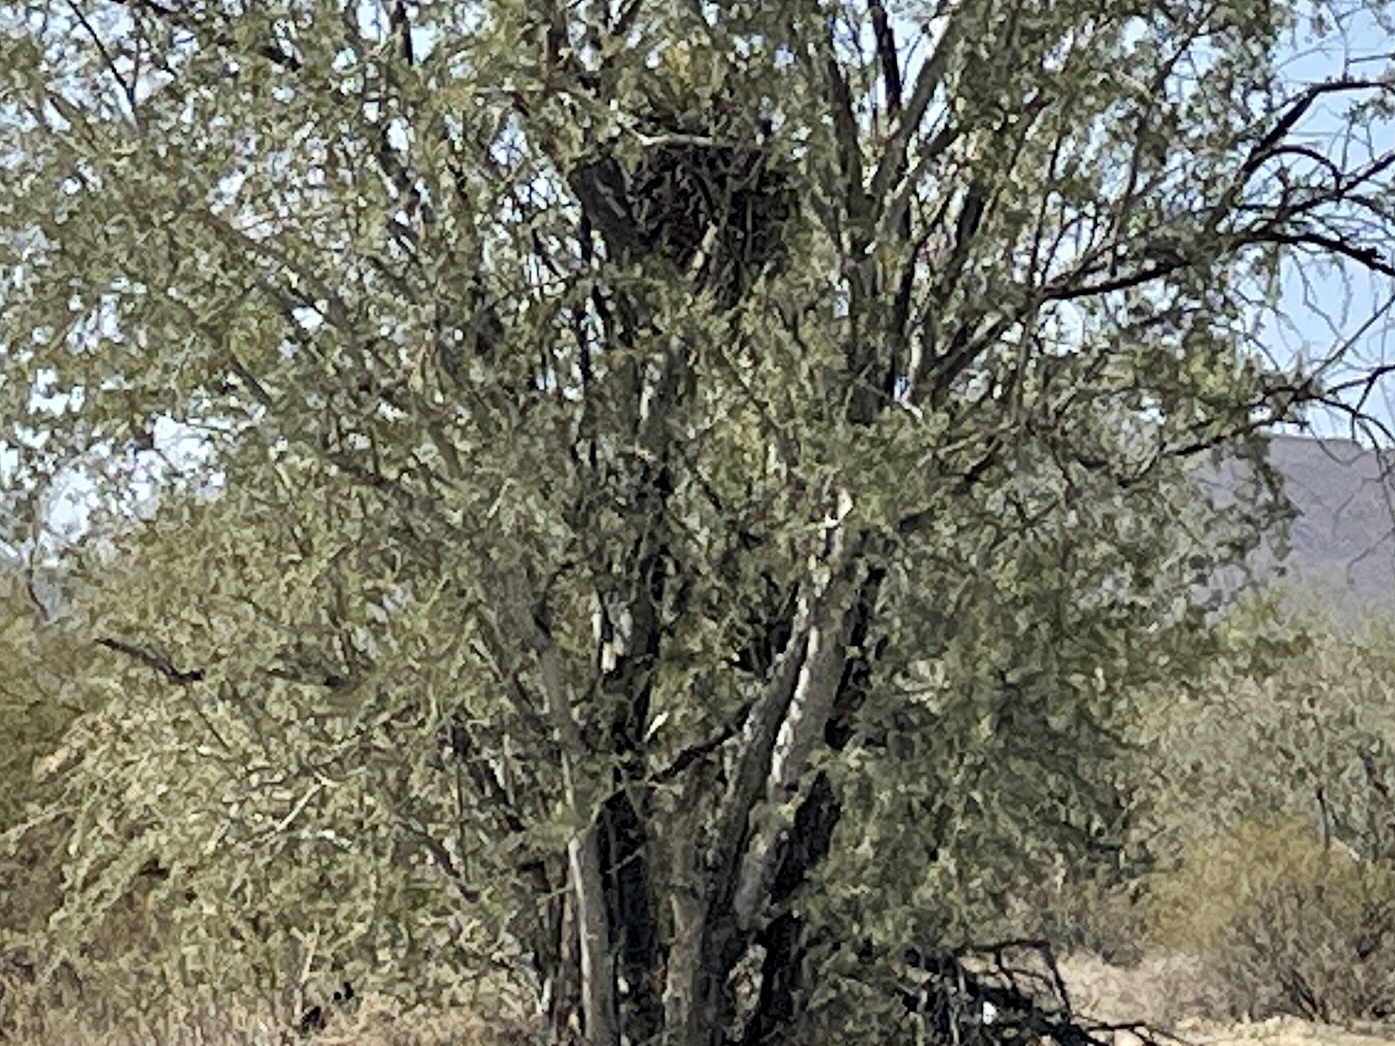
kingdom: Plantae
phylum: Tracheophyta
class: Magnoliopsida
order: Fabales
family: Fabaceae
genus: Olneya
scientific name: Olneya tesota
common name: Desert ironwood
